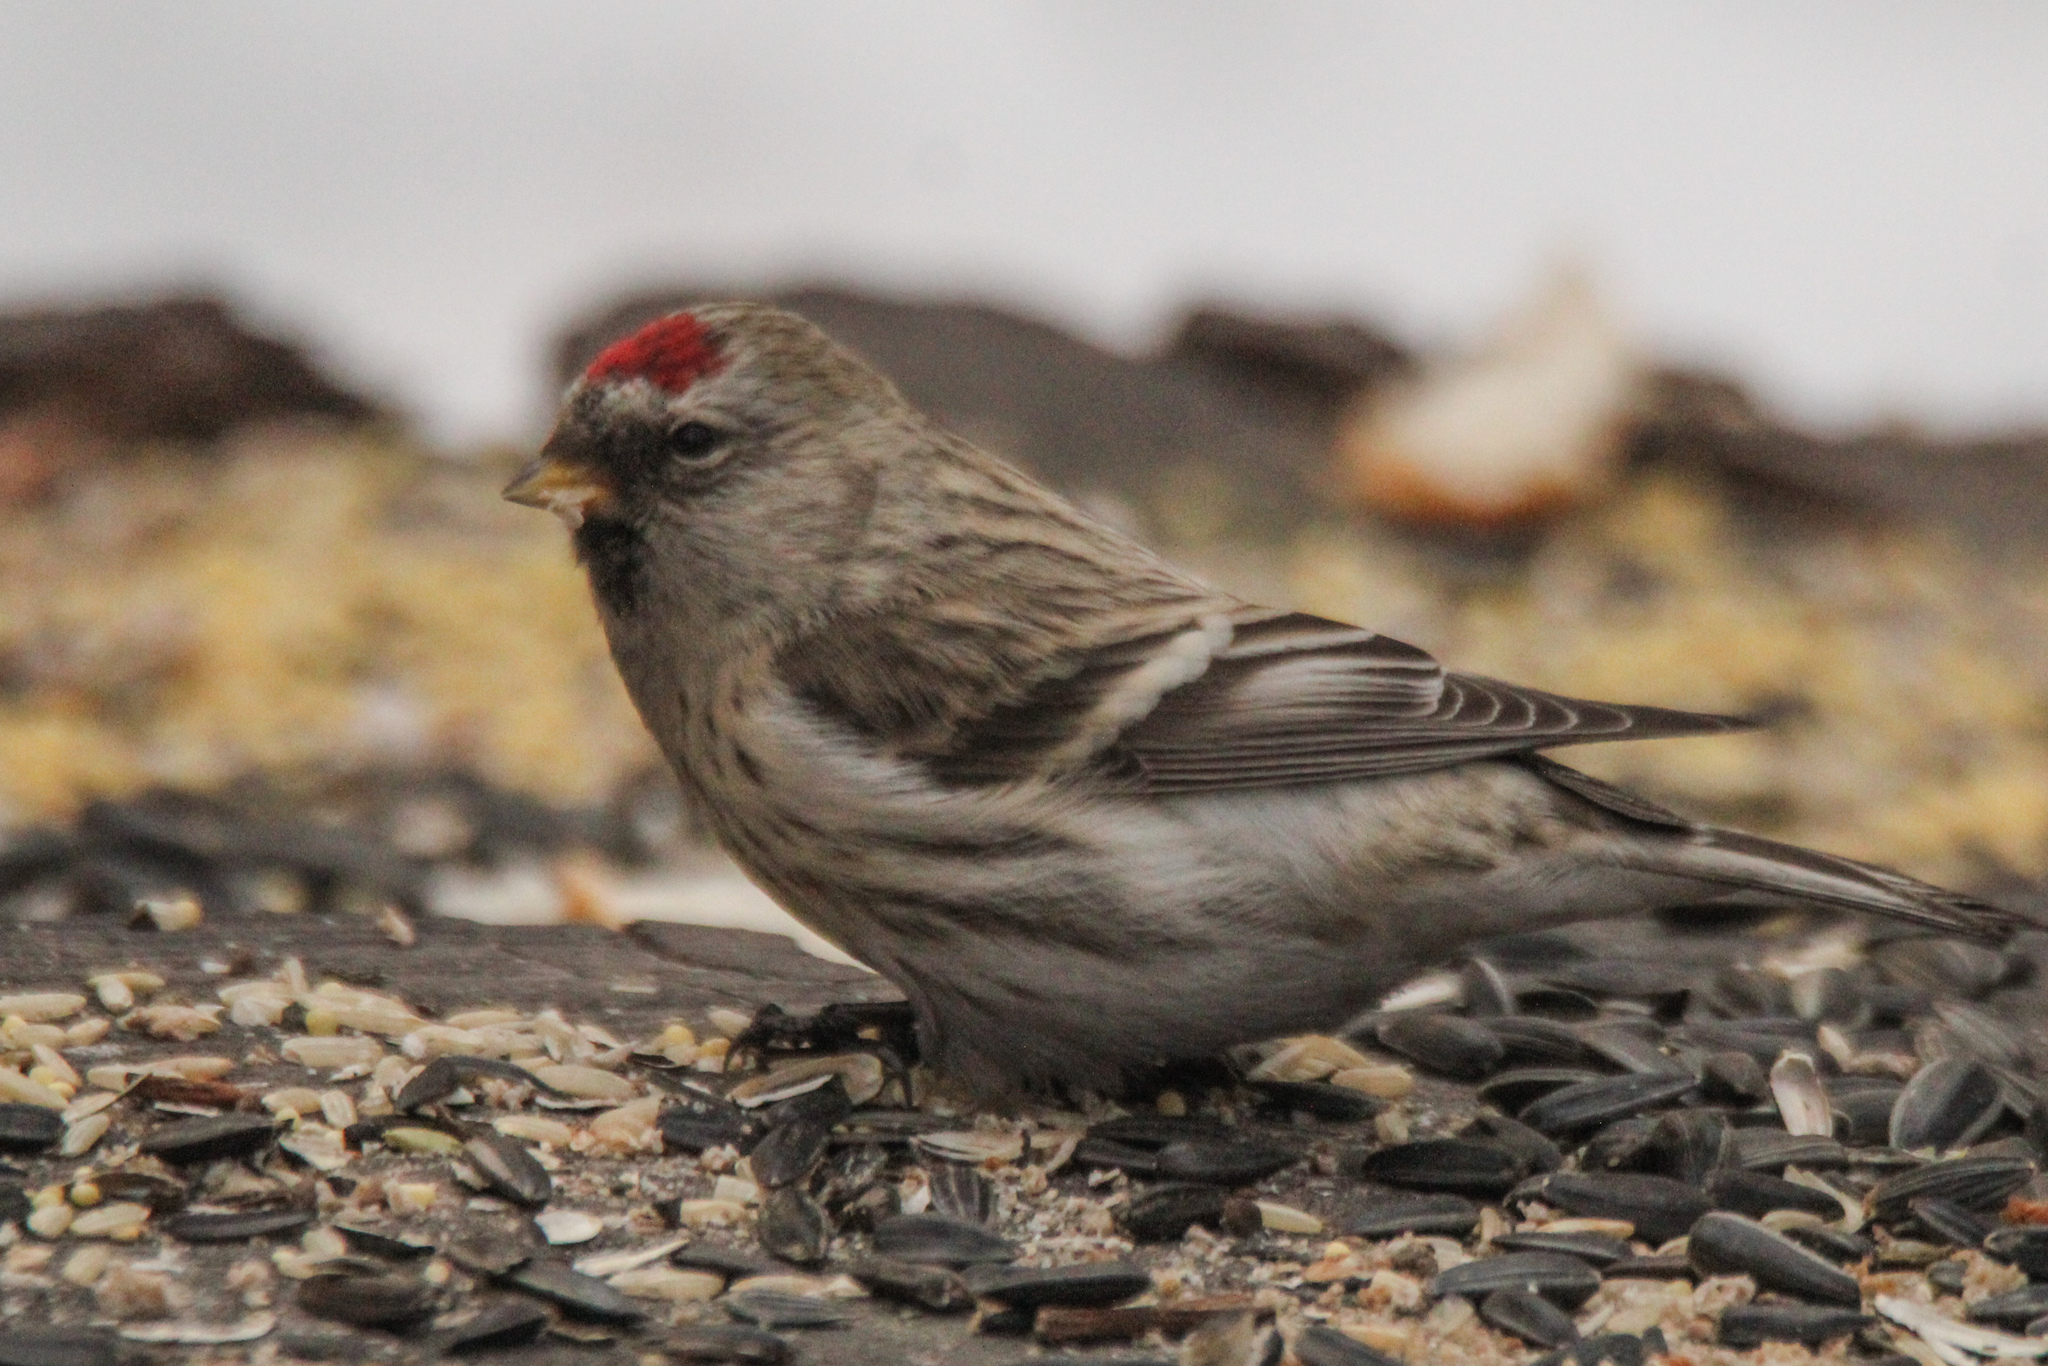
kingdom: Animalia
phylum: Chordata
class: Aves
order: Passeriformes
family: Fringillidae
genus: Acanthis
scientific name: Acanthis flammea
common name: Common redpoll
